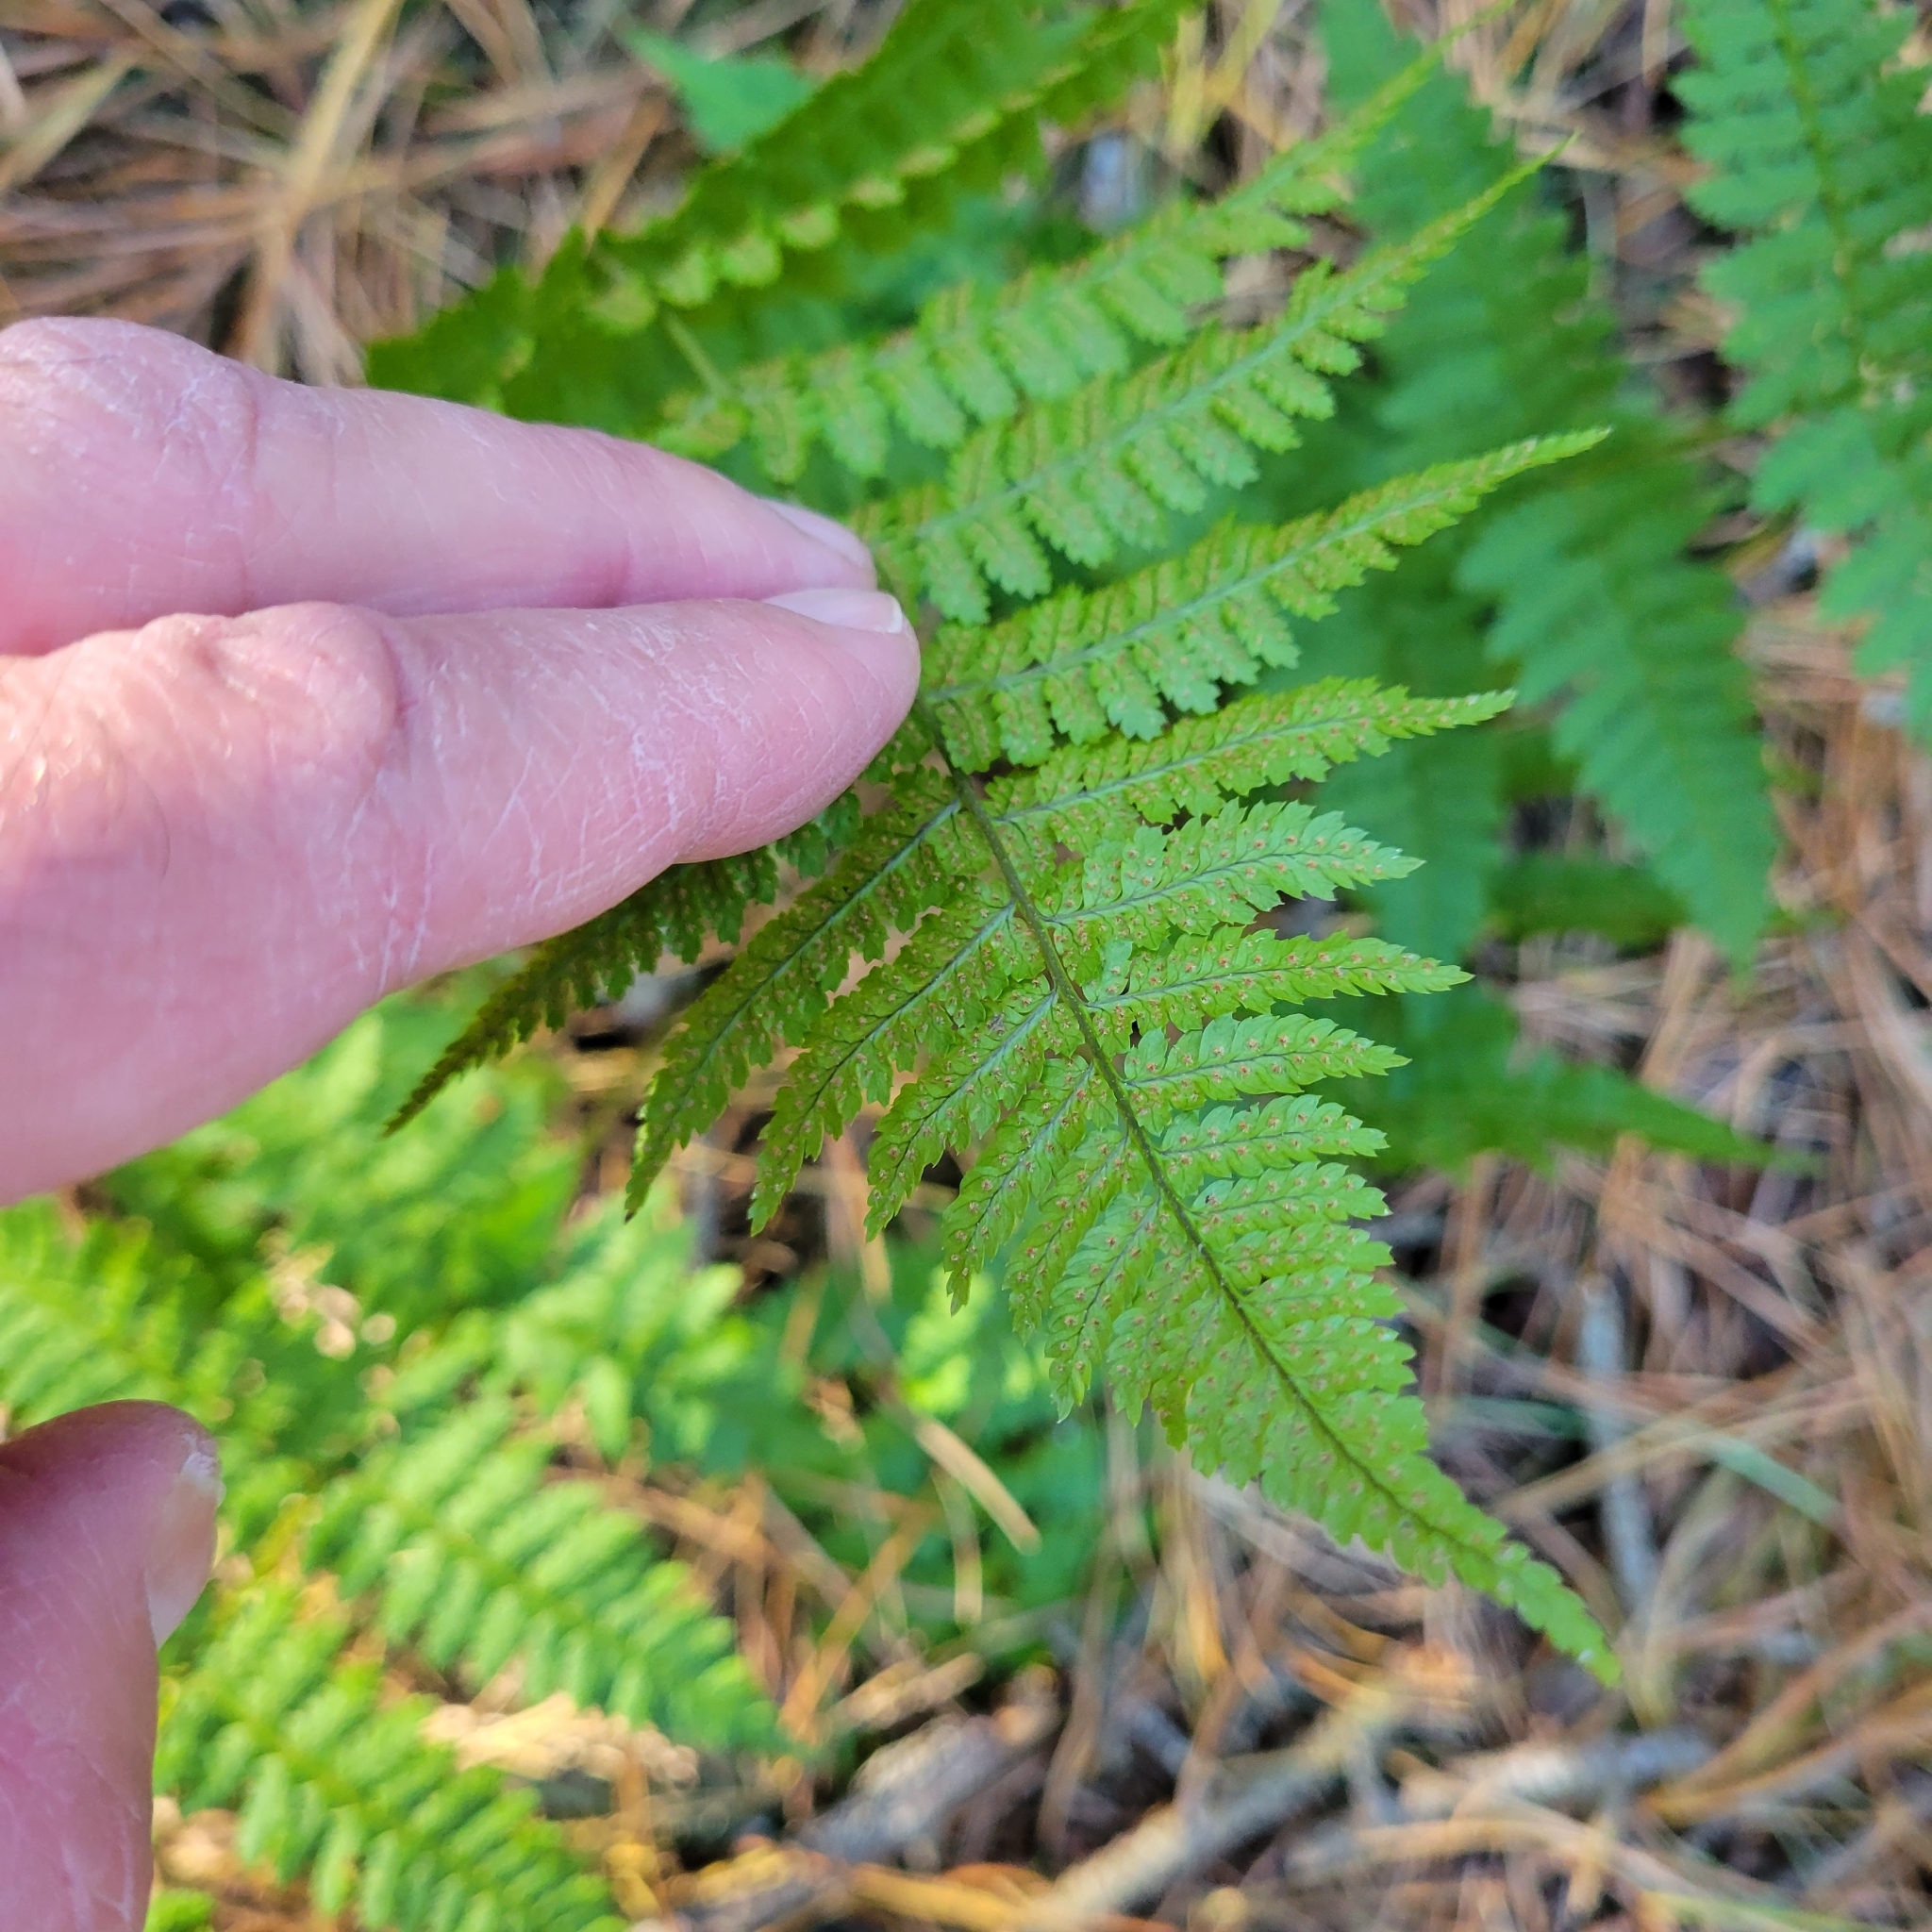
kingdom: Plantae
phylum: Tracheophyta
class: Polypodiopsida
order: Polypodiales
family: Dryopteridaceae
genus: Dryopteris
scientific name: Dryopteris intermedia
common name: Evergreen wood fern
